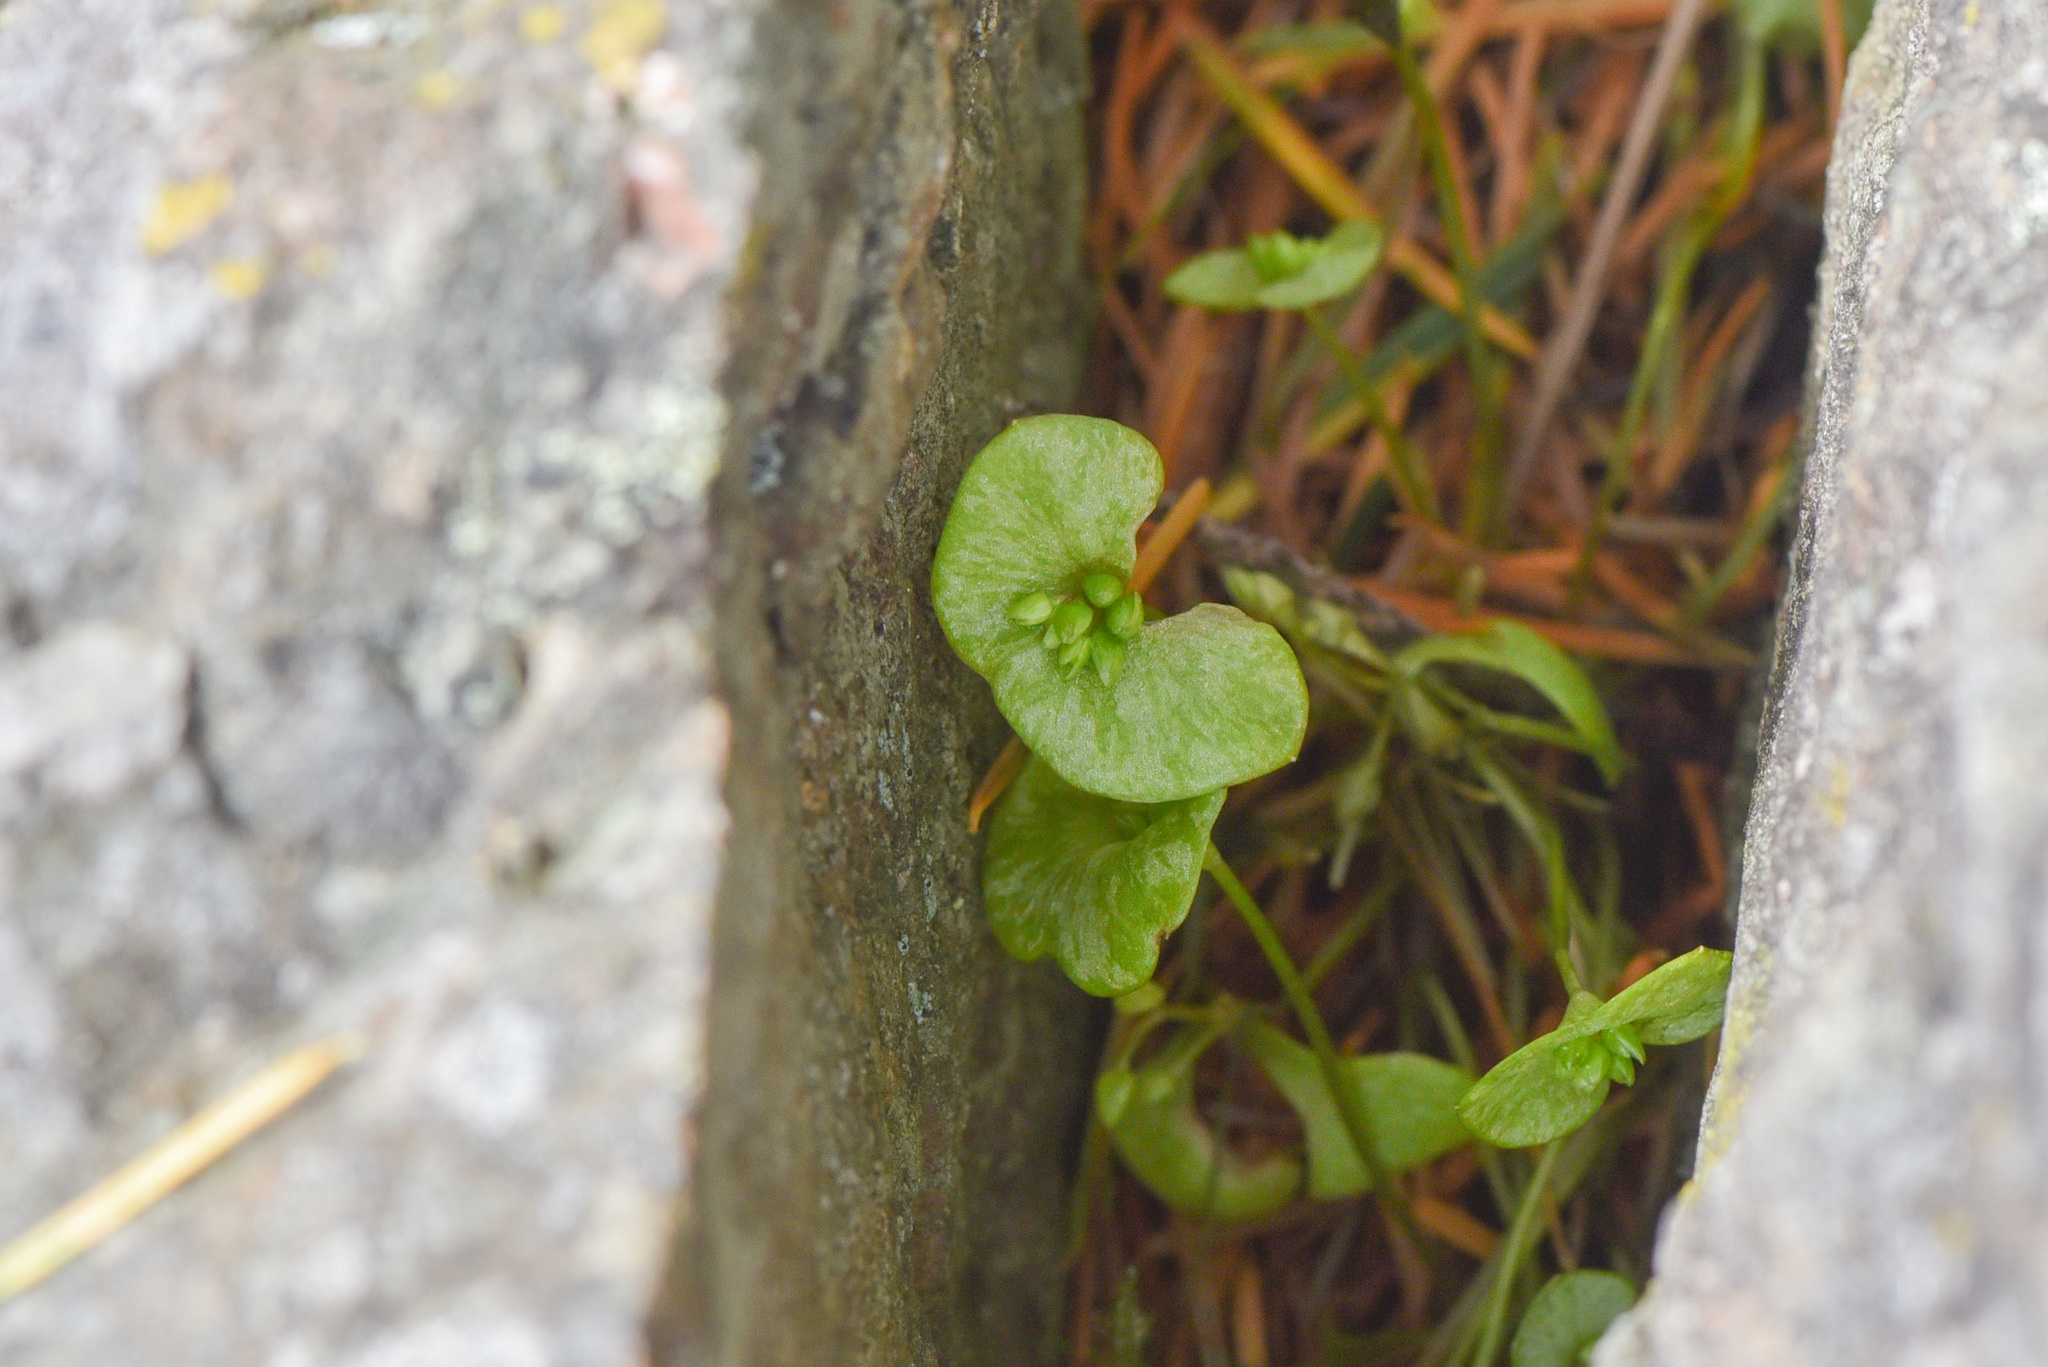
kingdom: Plantae
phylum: Tracheophyta
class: Magnoliopsida
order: Caryophyllales
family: Montiaceae
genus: Claytonia
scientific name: Claytonia perfoliata
